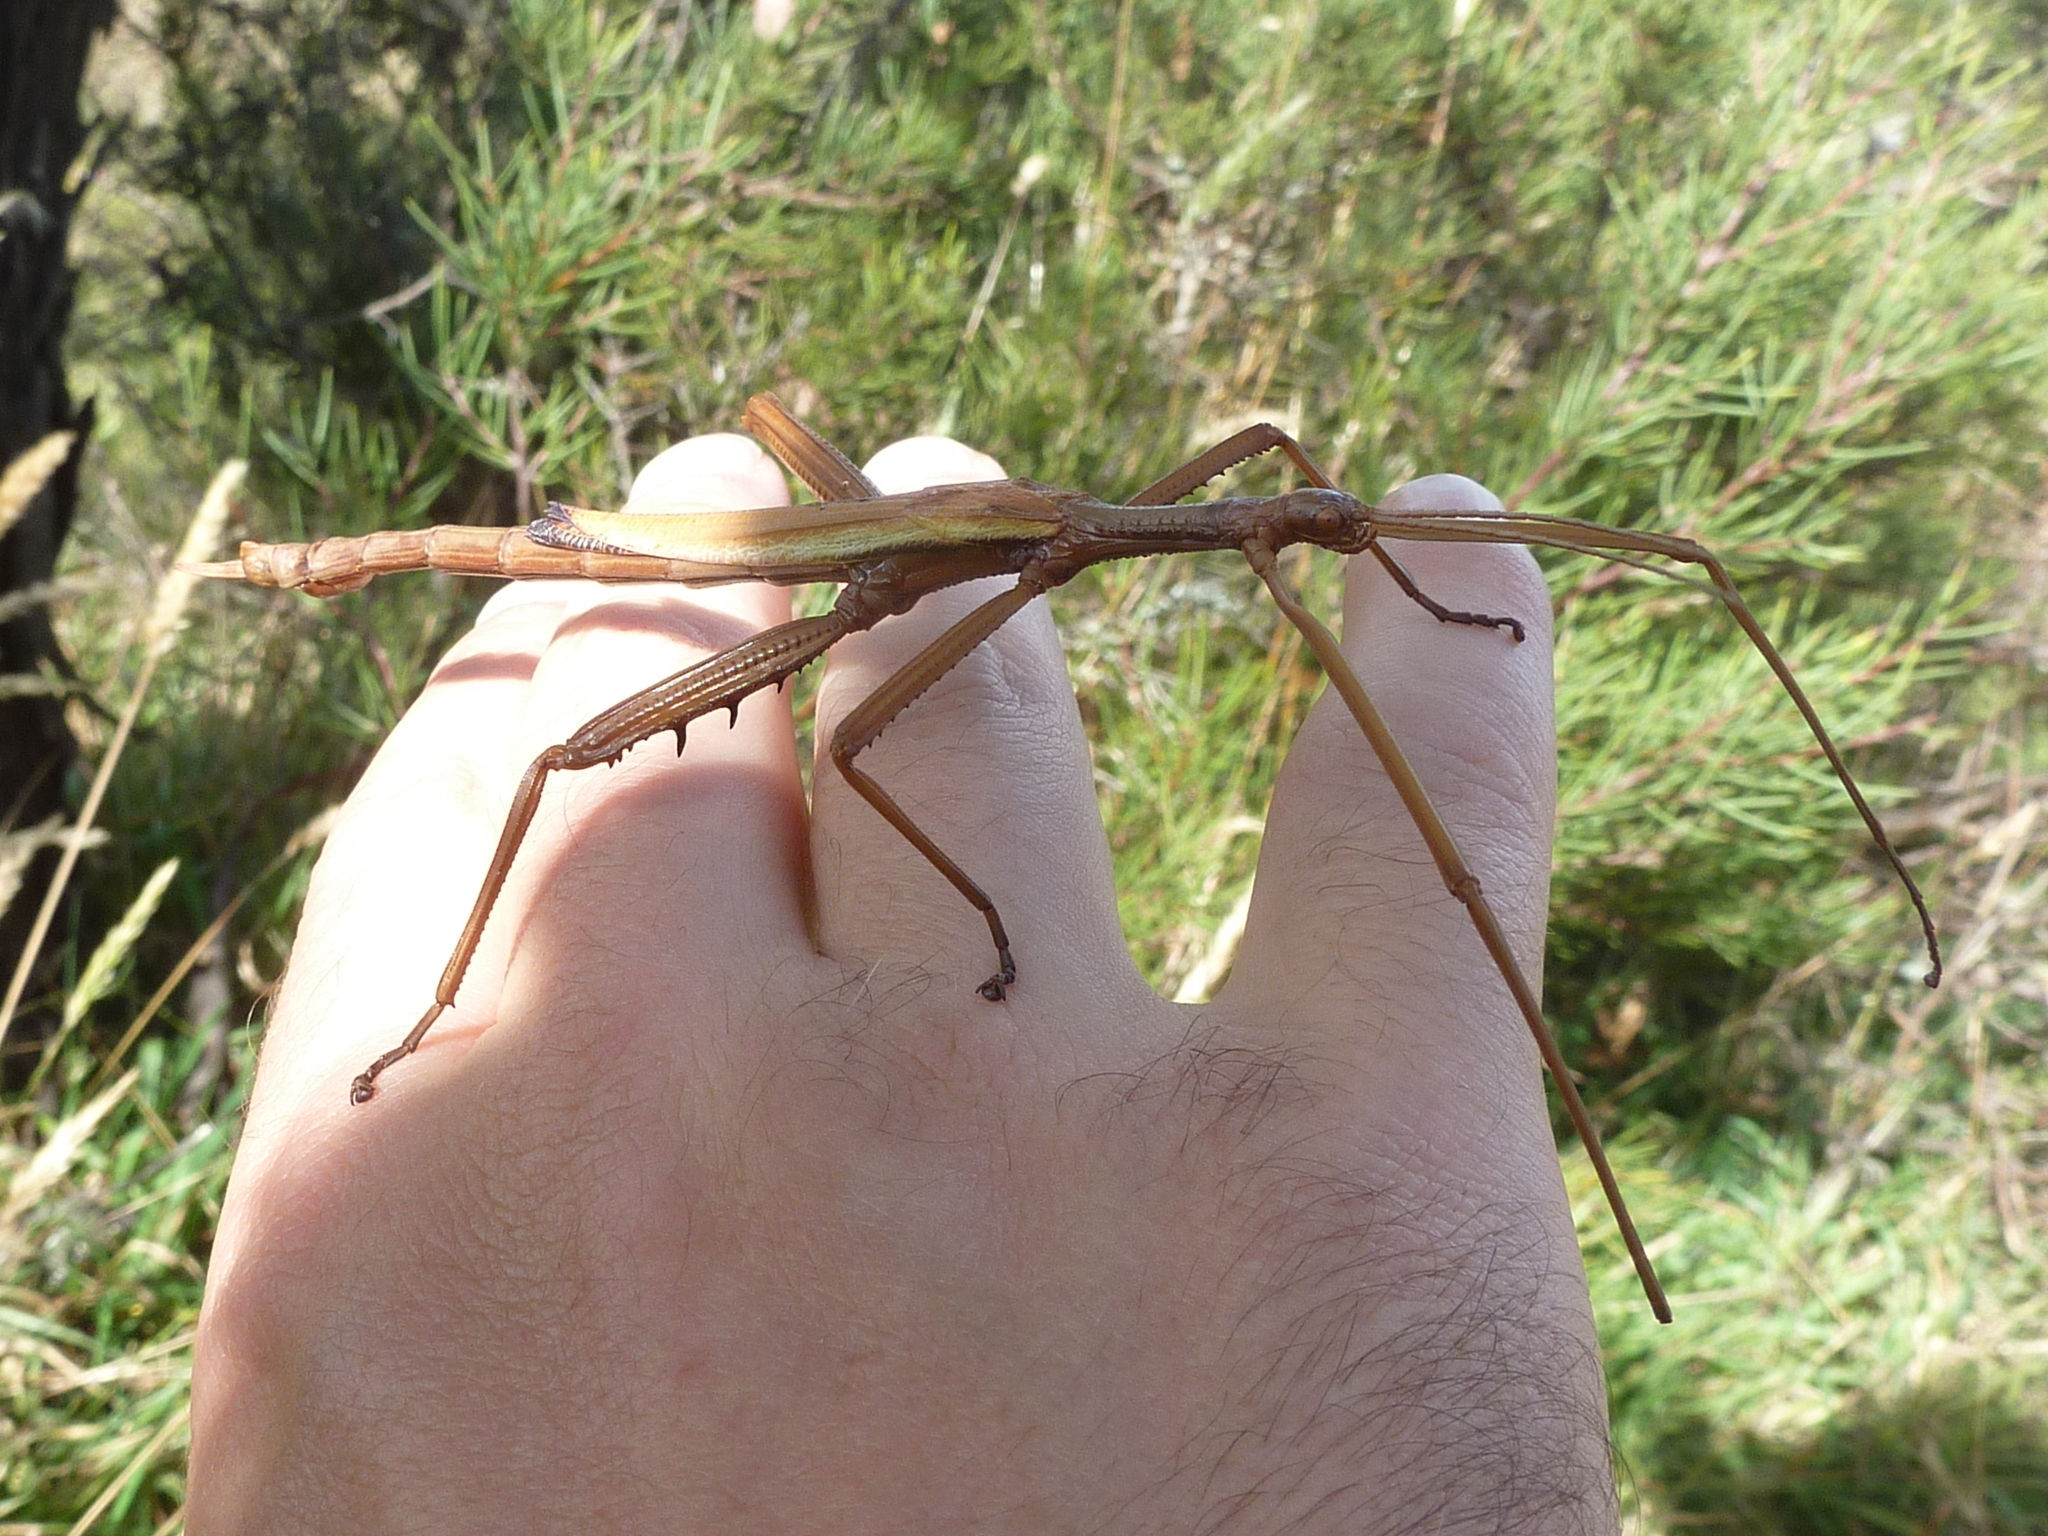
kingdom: Animalia
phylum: Arthropoda
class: Insecta
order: Phasmida
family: Phasmatidae
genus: Didymuria
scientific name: Didymuria violescens
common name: Spur-legged stick-insect
